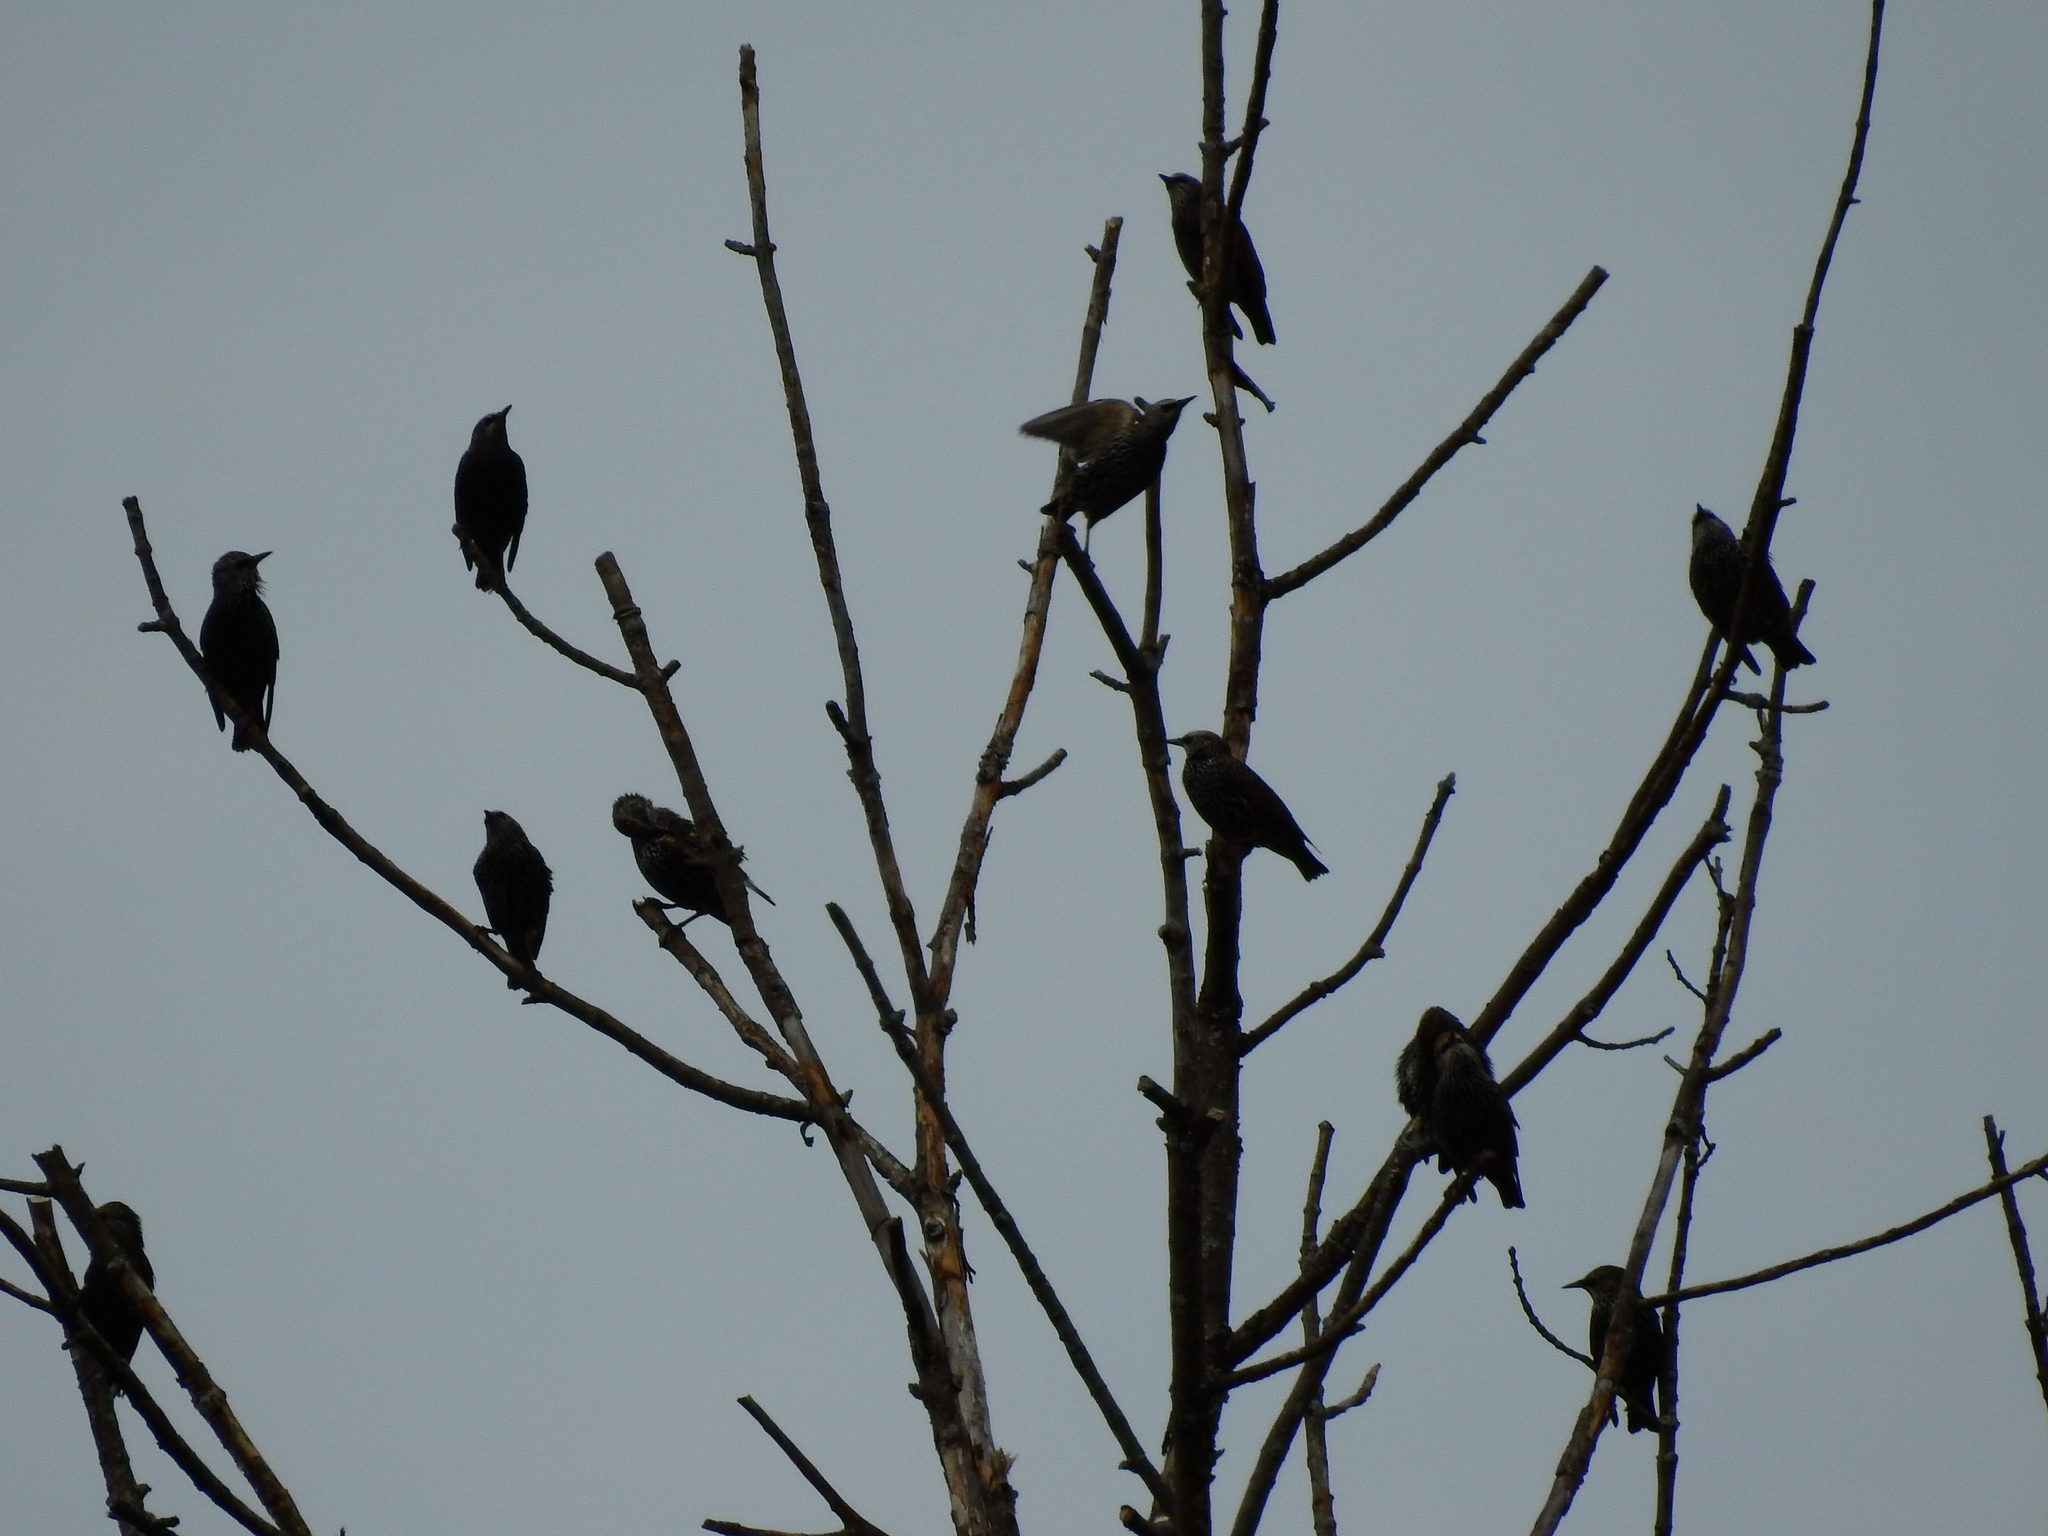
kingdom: Animalia
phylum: Chordata
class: Aves
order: Passeriformes
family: Sturnidae
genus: Sturnus
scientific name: Sturnus vulgaris
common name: Common starling
